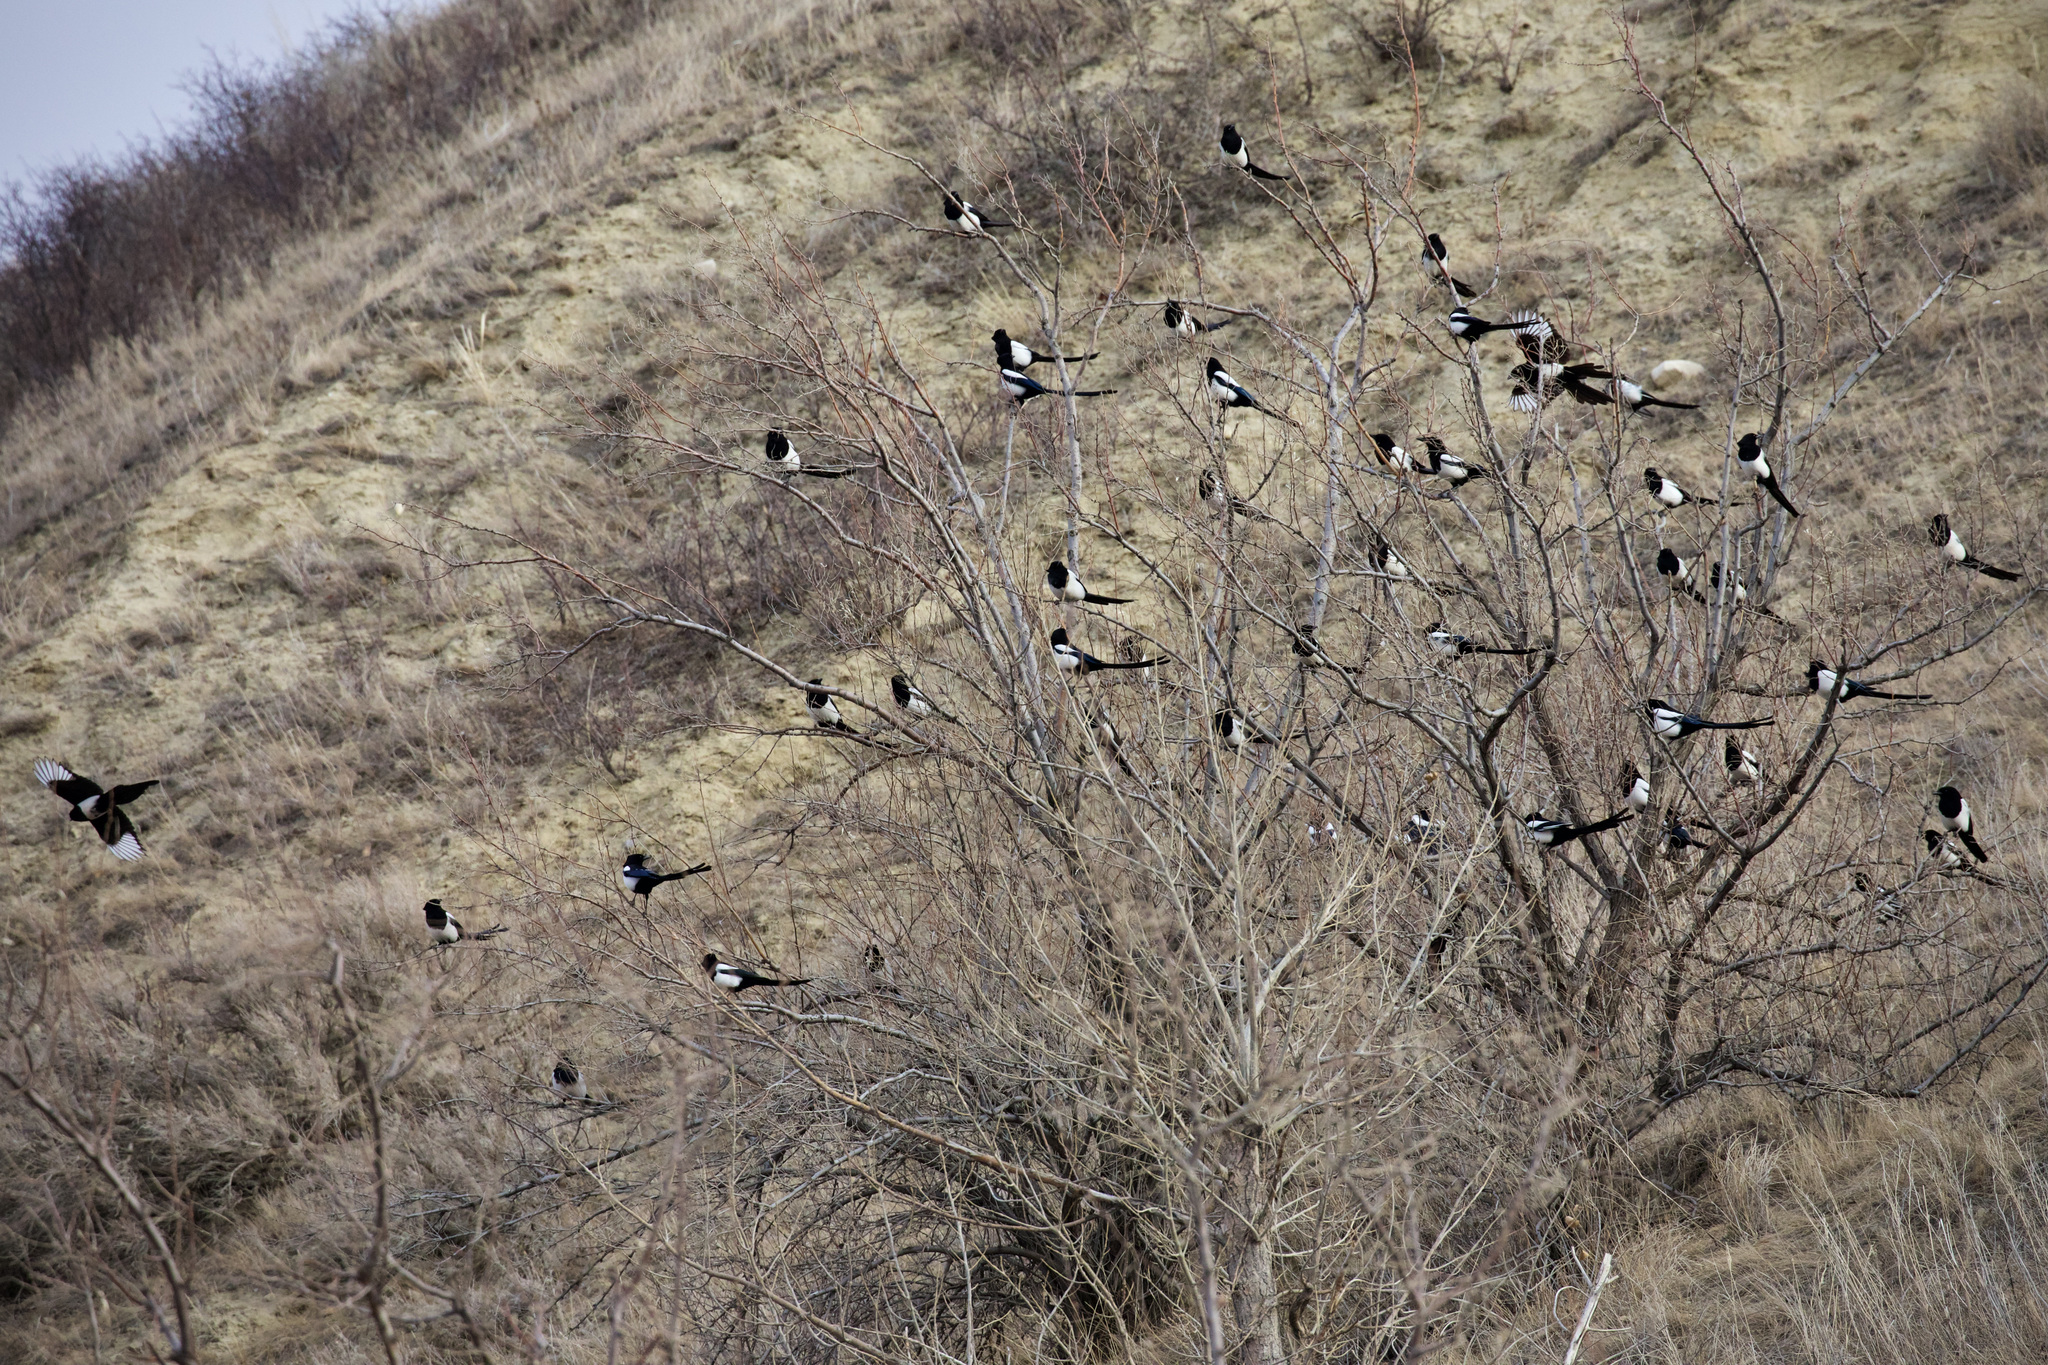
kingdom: Animalia
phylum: Chordata
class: Aves
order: Passeriformes
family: Corvidae
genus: Pica
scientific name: Pica hudsonia
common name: Black-billed magpie
